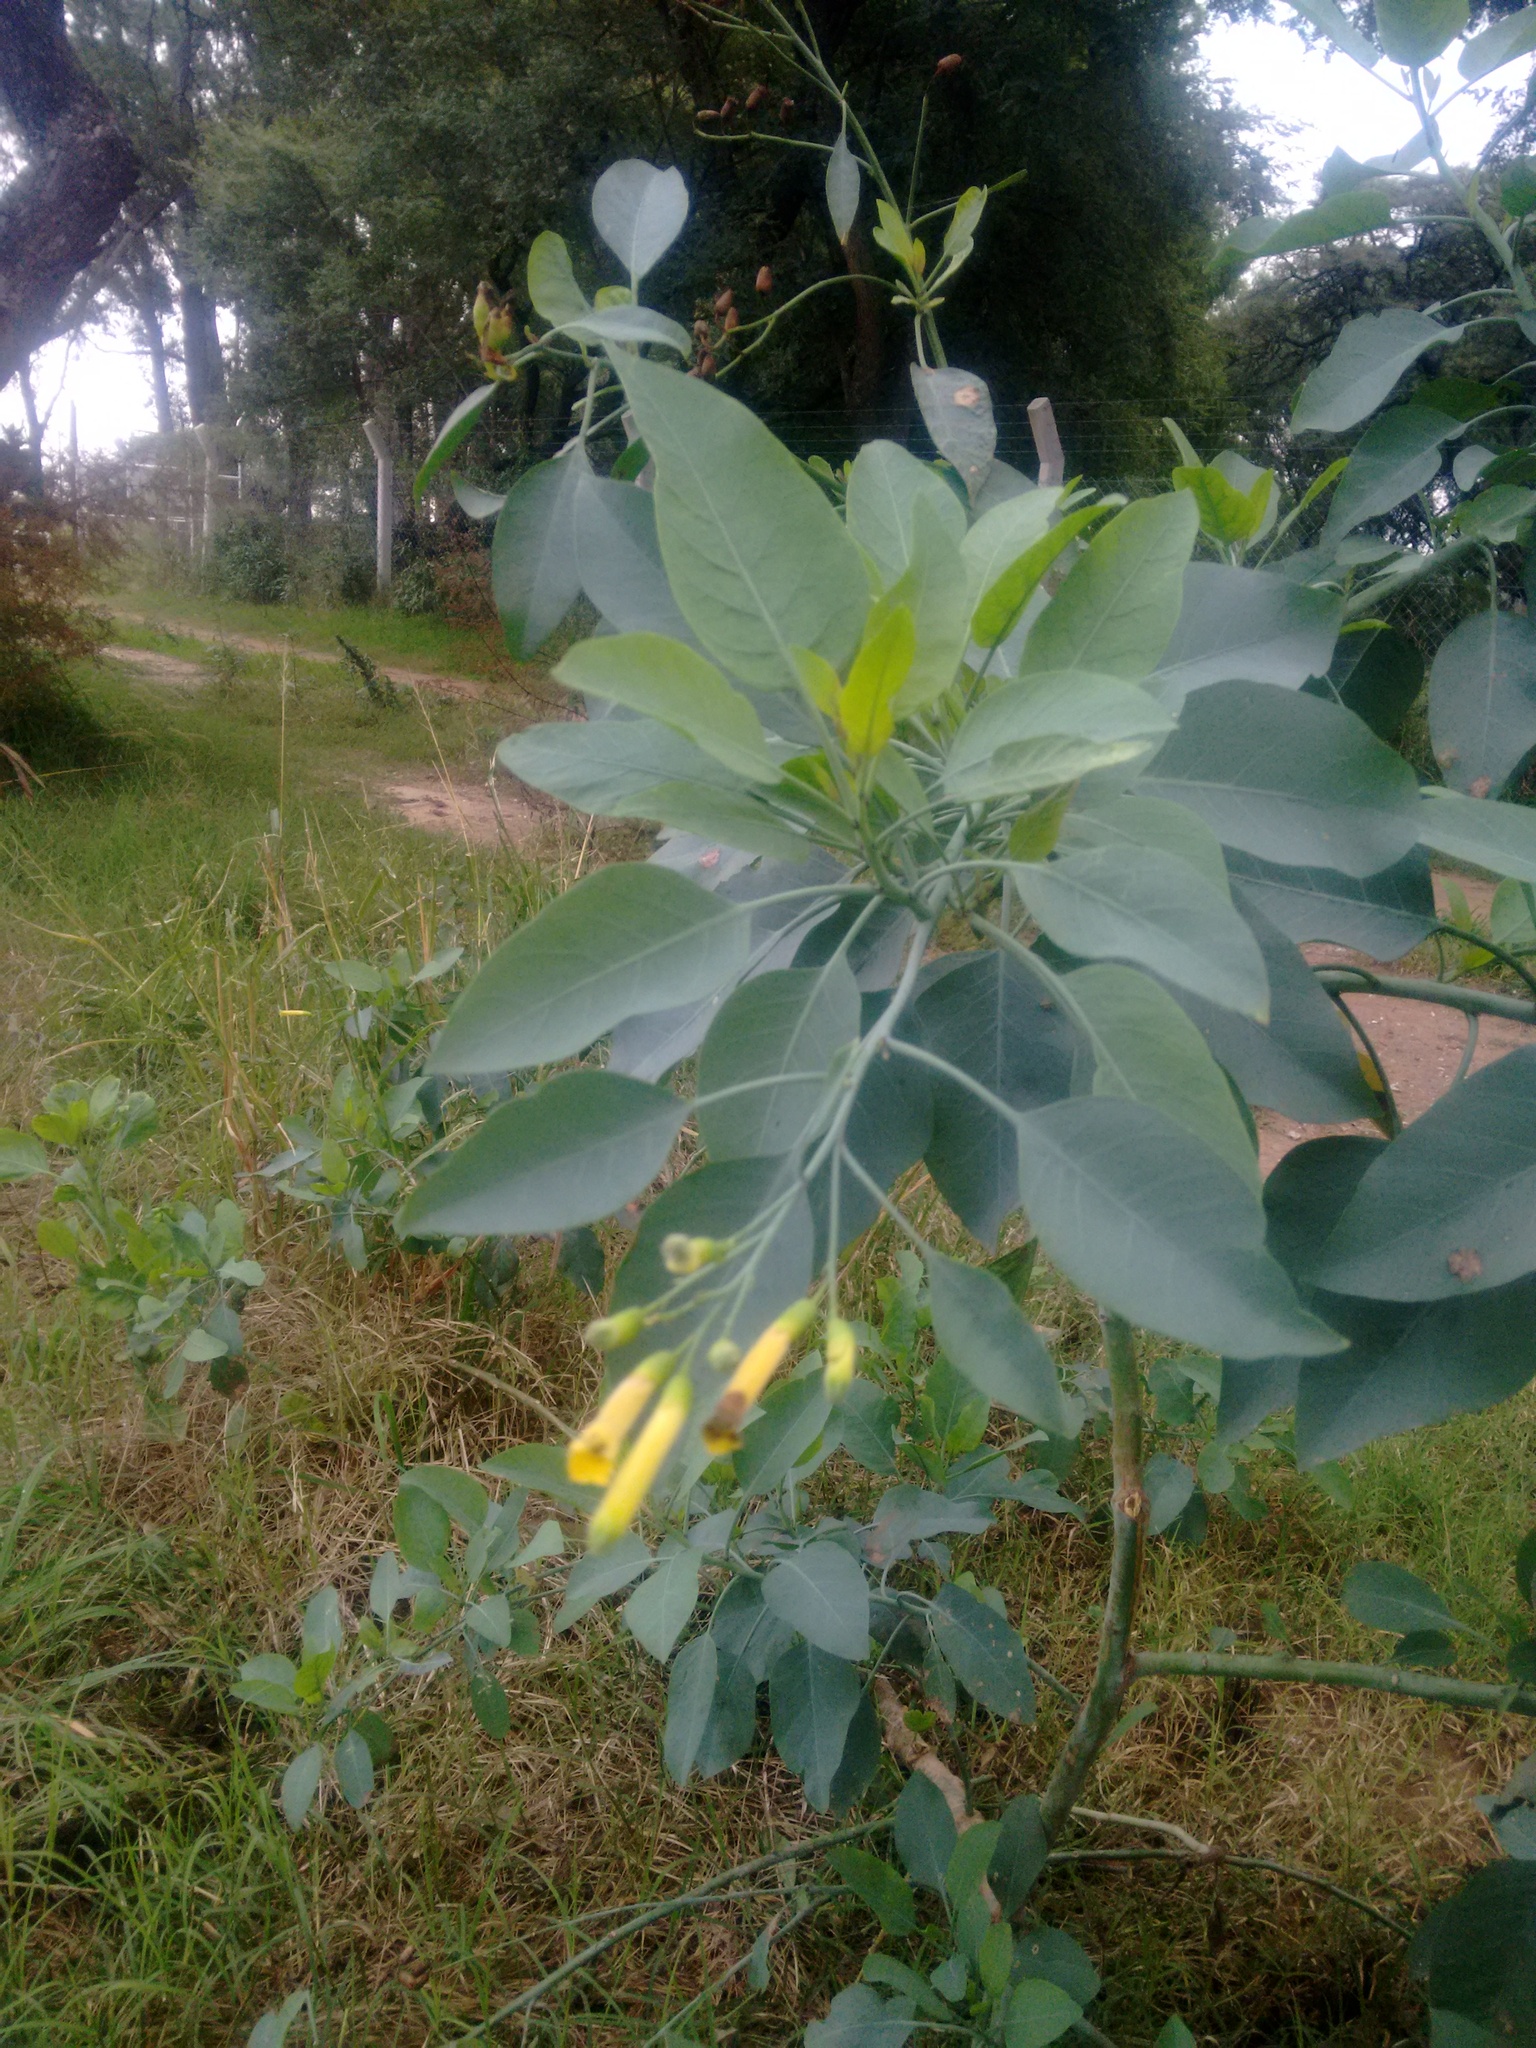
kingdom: Plantae
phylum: Tracheophyta
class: Magnoliopsida
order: Solanales
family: Solanaceae
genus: Nicotiana
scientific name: Nicotiana glauca
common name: Tree tobacco
